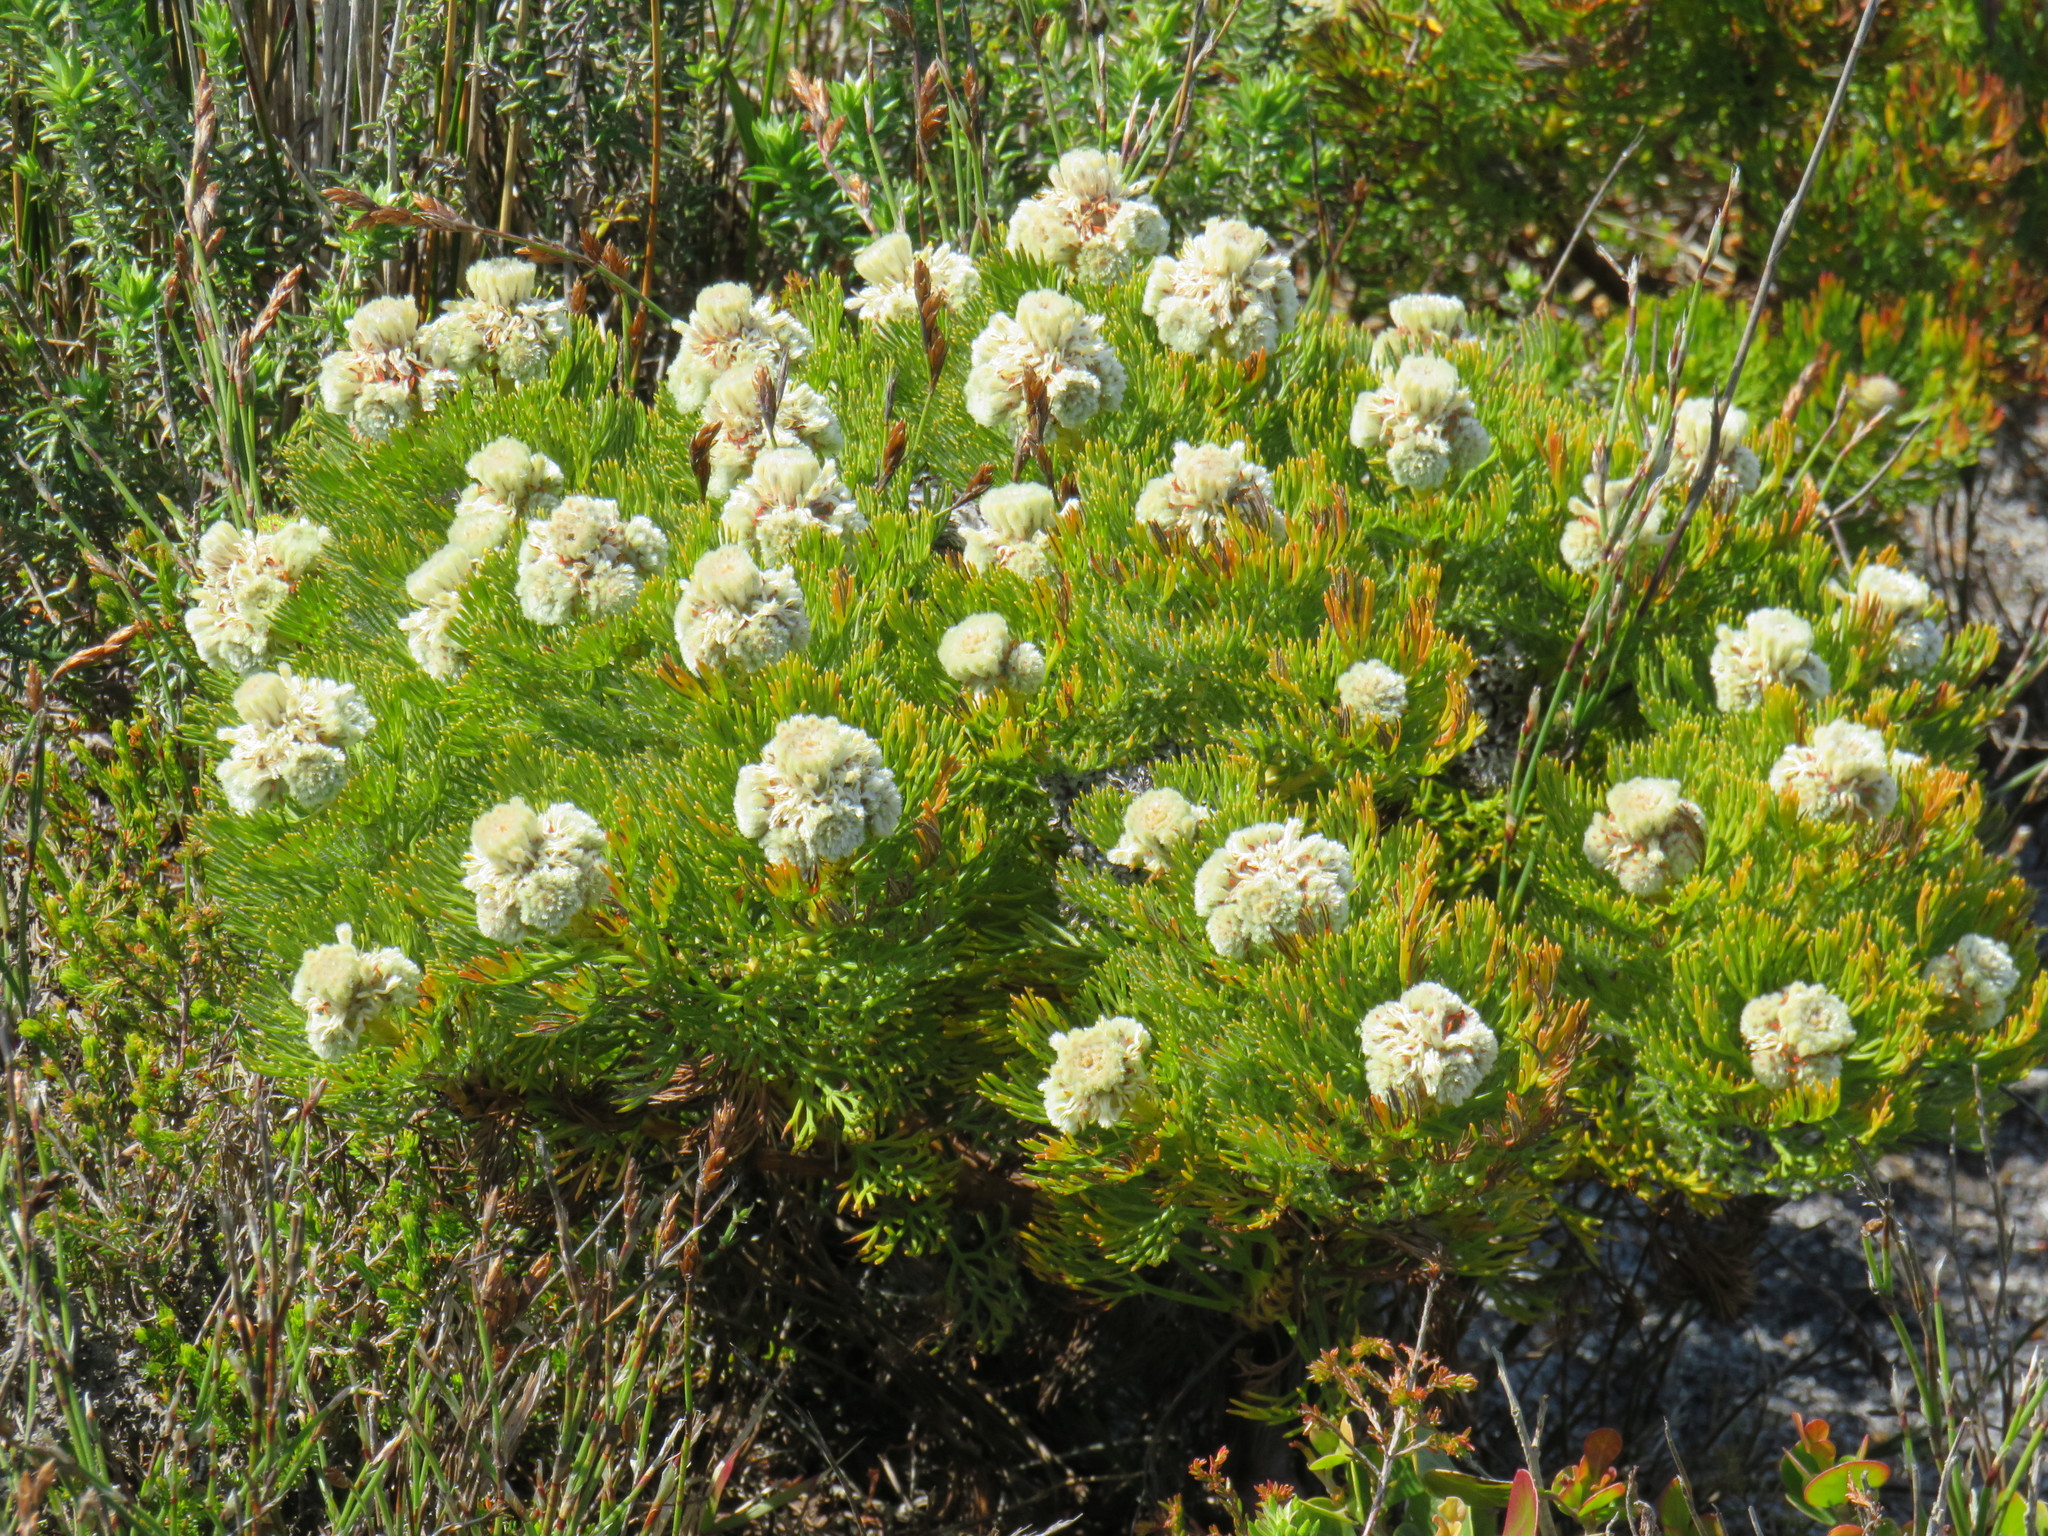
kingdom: Plantae
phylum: Tracheophyta
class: Magnoliopsida
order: Proteales
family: Proteaceae
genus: Serruria
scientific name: Serruria glomerata
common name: Cluster spiderhead
